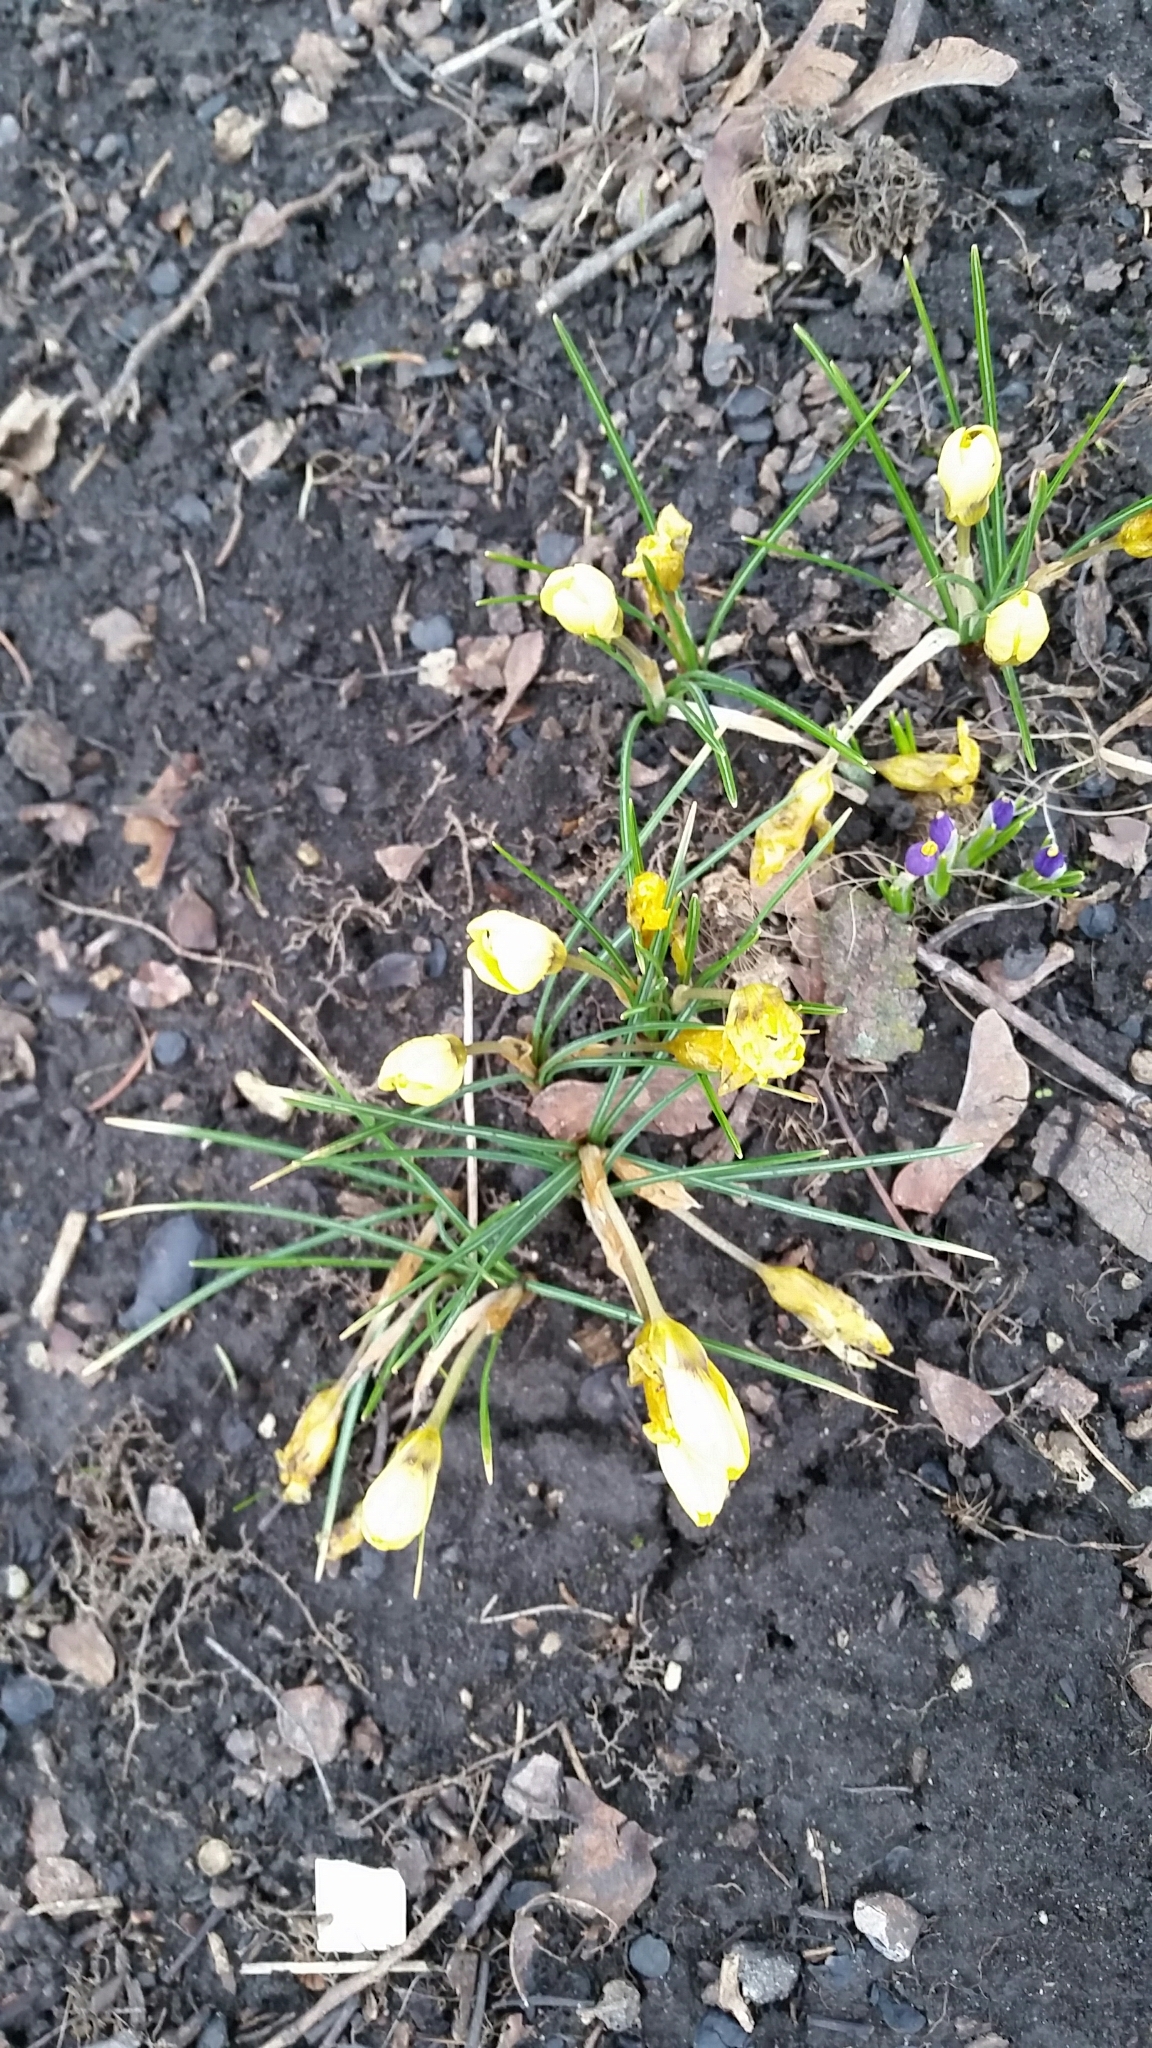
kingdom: Plantae
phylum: Tracheophyta
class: Liliopsida
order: Asparagales
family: Iridaceae
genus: Crocus
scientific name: Crocus chrysanthus
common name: Golden crocus
